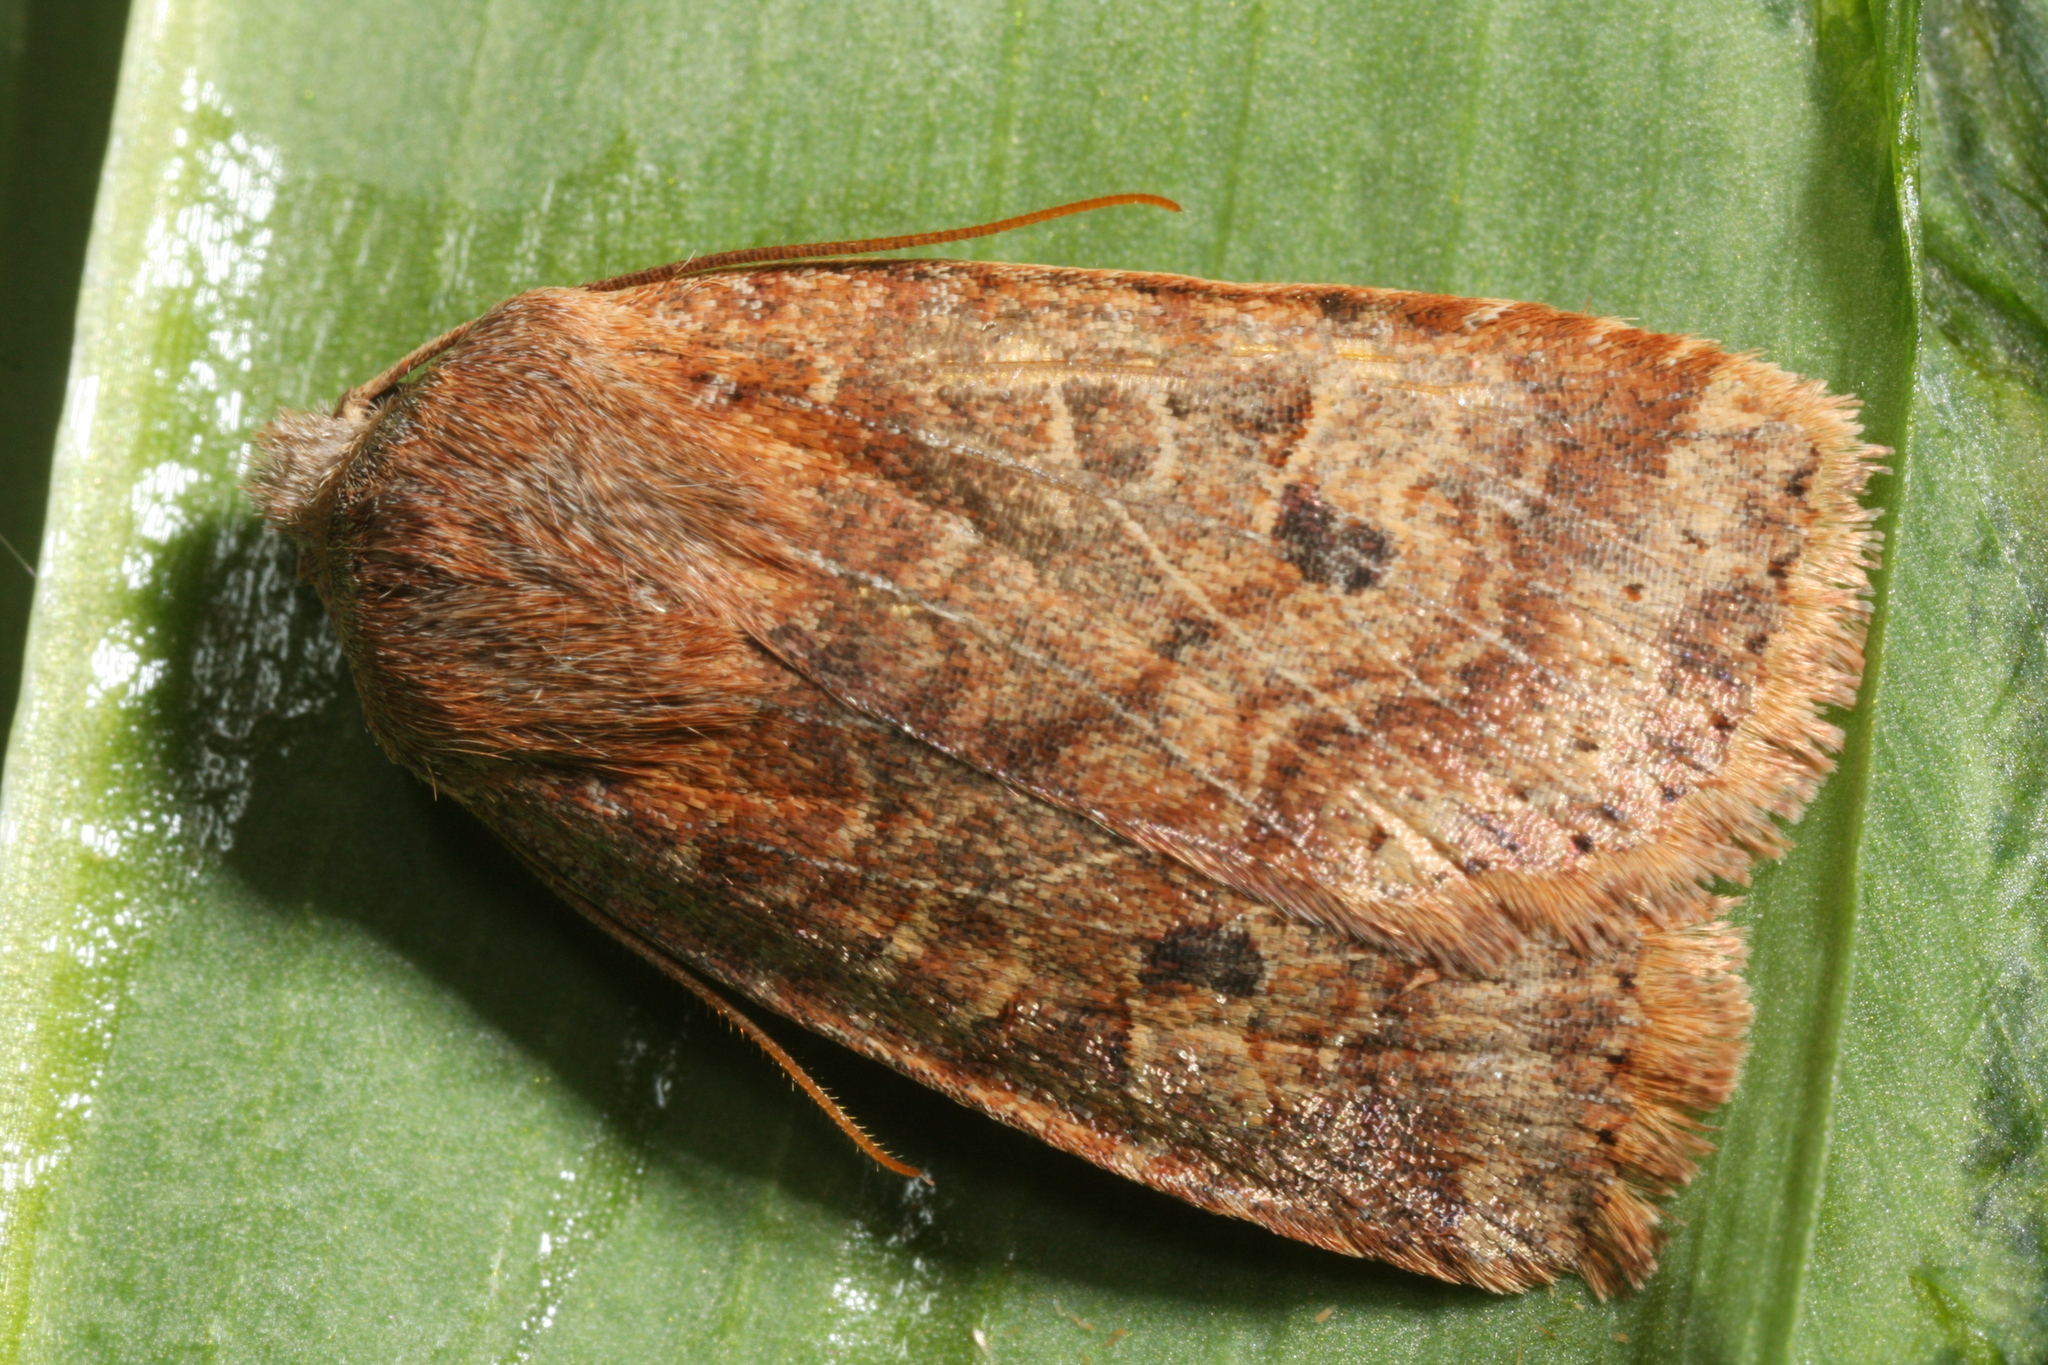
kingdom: Animalia
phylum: Arthropoda
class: Insecta
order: Lepidoptera
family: Noctuidae
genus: Conistra
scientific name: Conistra vaccinii
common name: Chestnut
